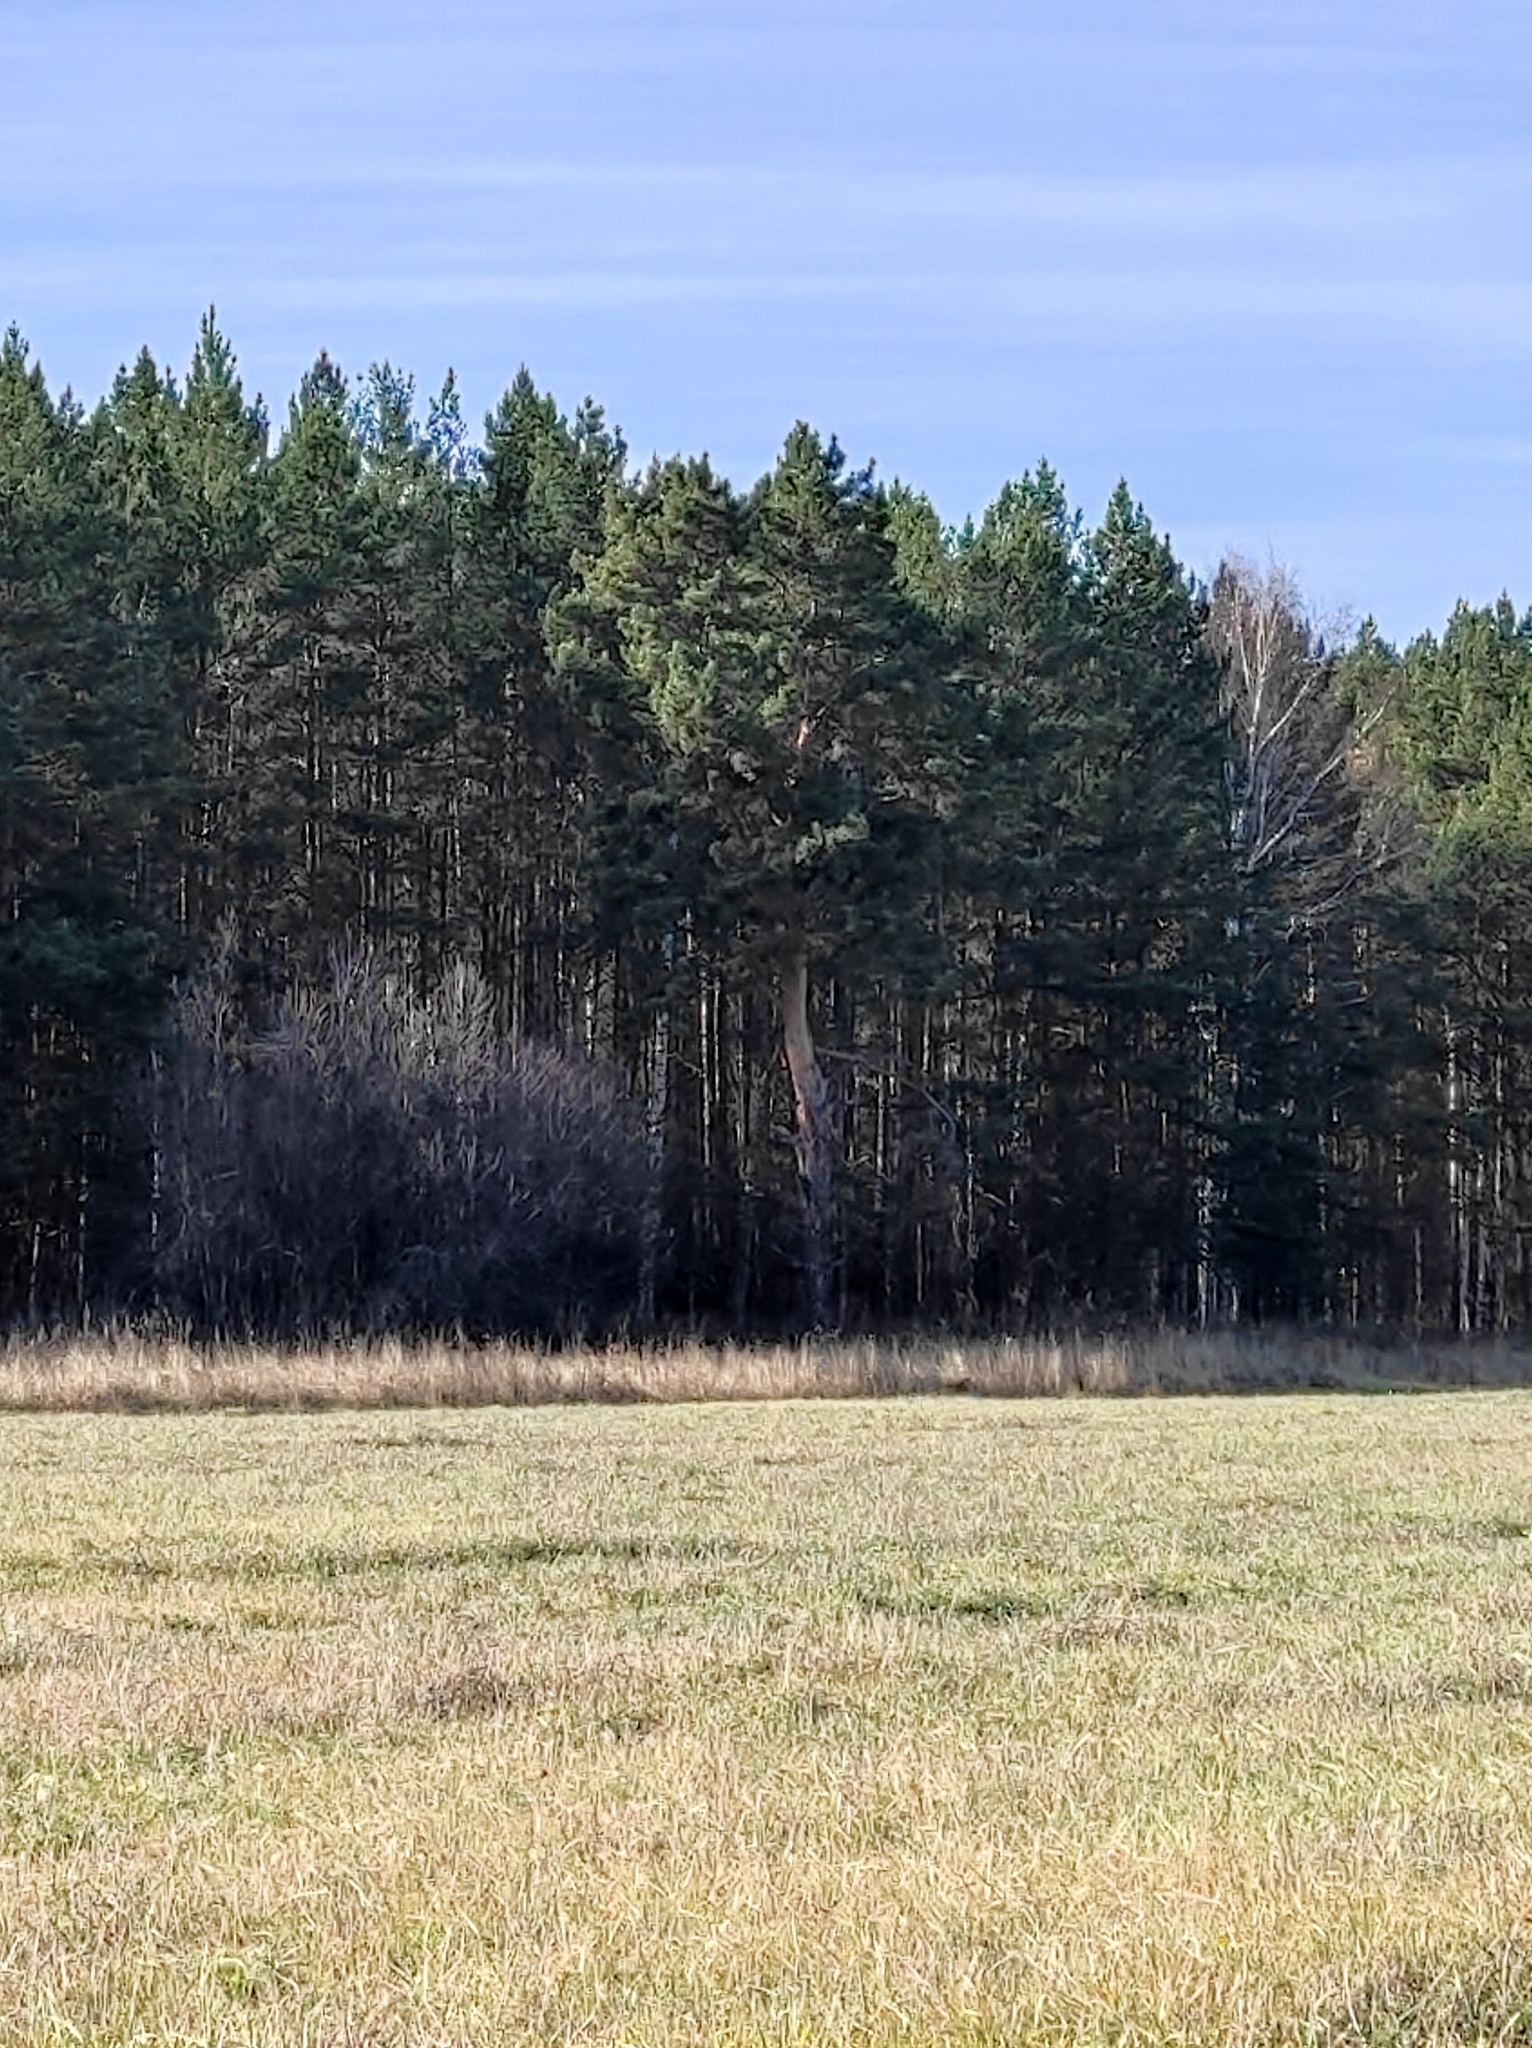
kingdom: Plantae
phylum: Tracheophyta
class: Pinopsida
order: Pinales
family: Pinaceae
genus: Pinus
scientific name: Pinus sylvestris
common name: Scots pine
